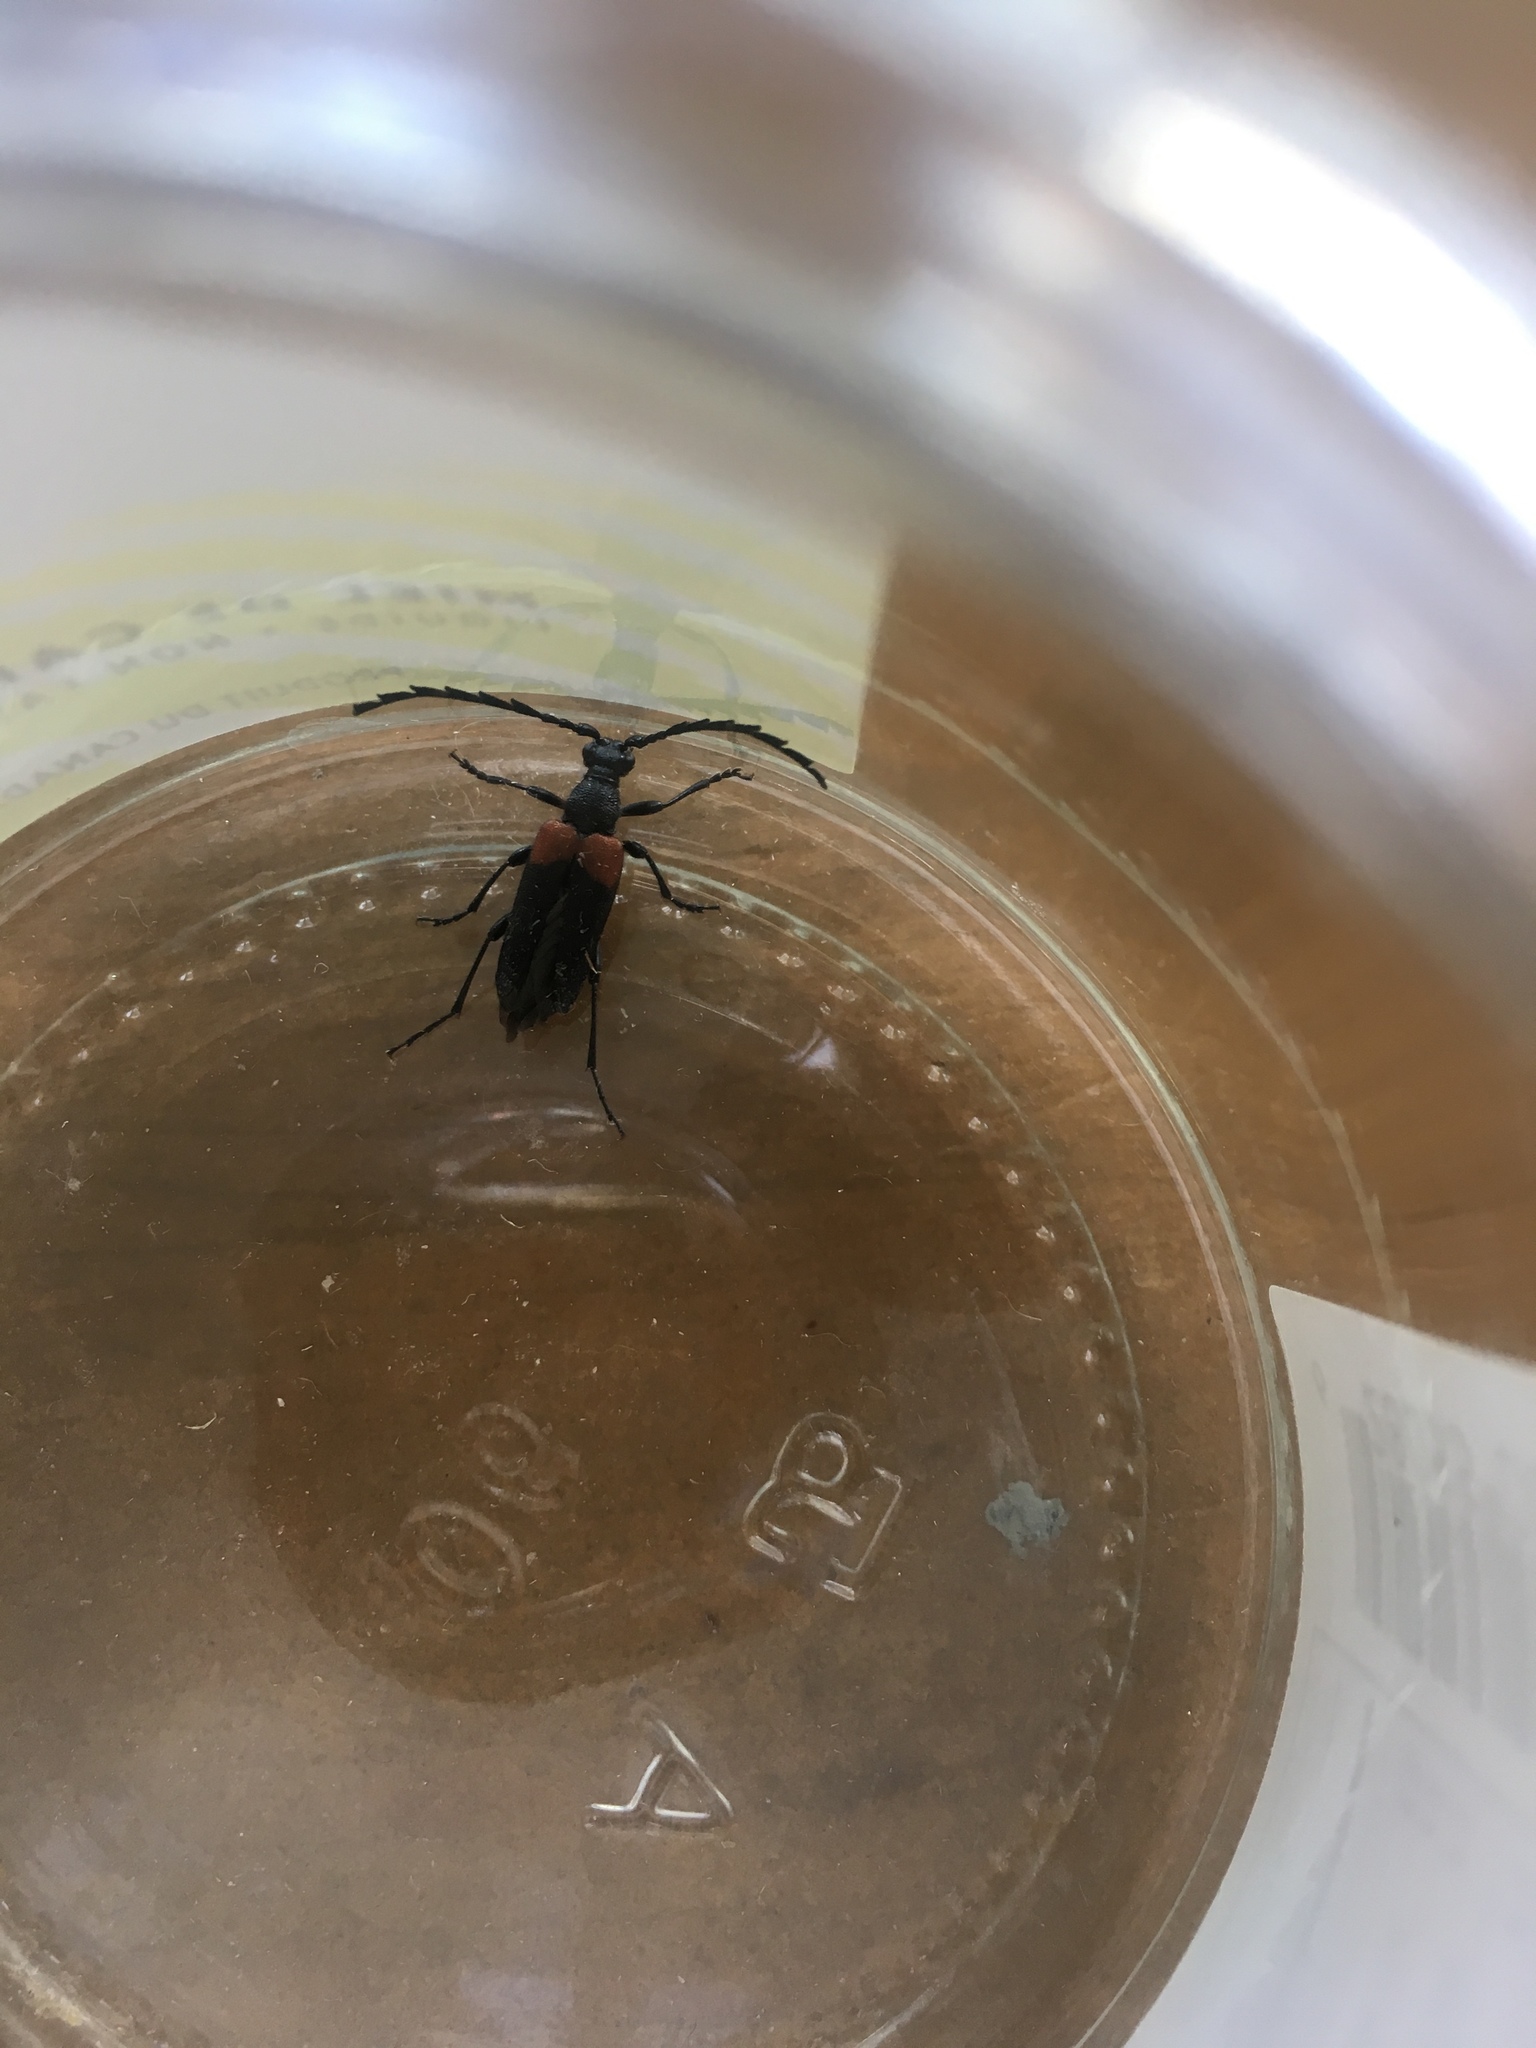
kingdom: Animalia
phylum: Arthropoda
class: Insecta
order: Coleoptera
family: Cerambycidae
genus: Stictoleptura
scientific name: Stictoleptura canadensis
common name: Red-shouldered pine borer
